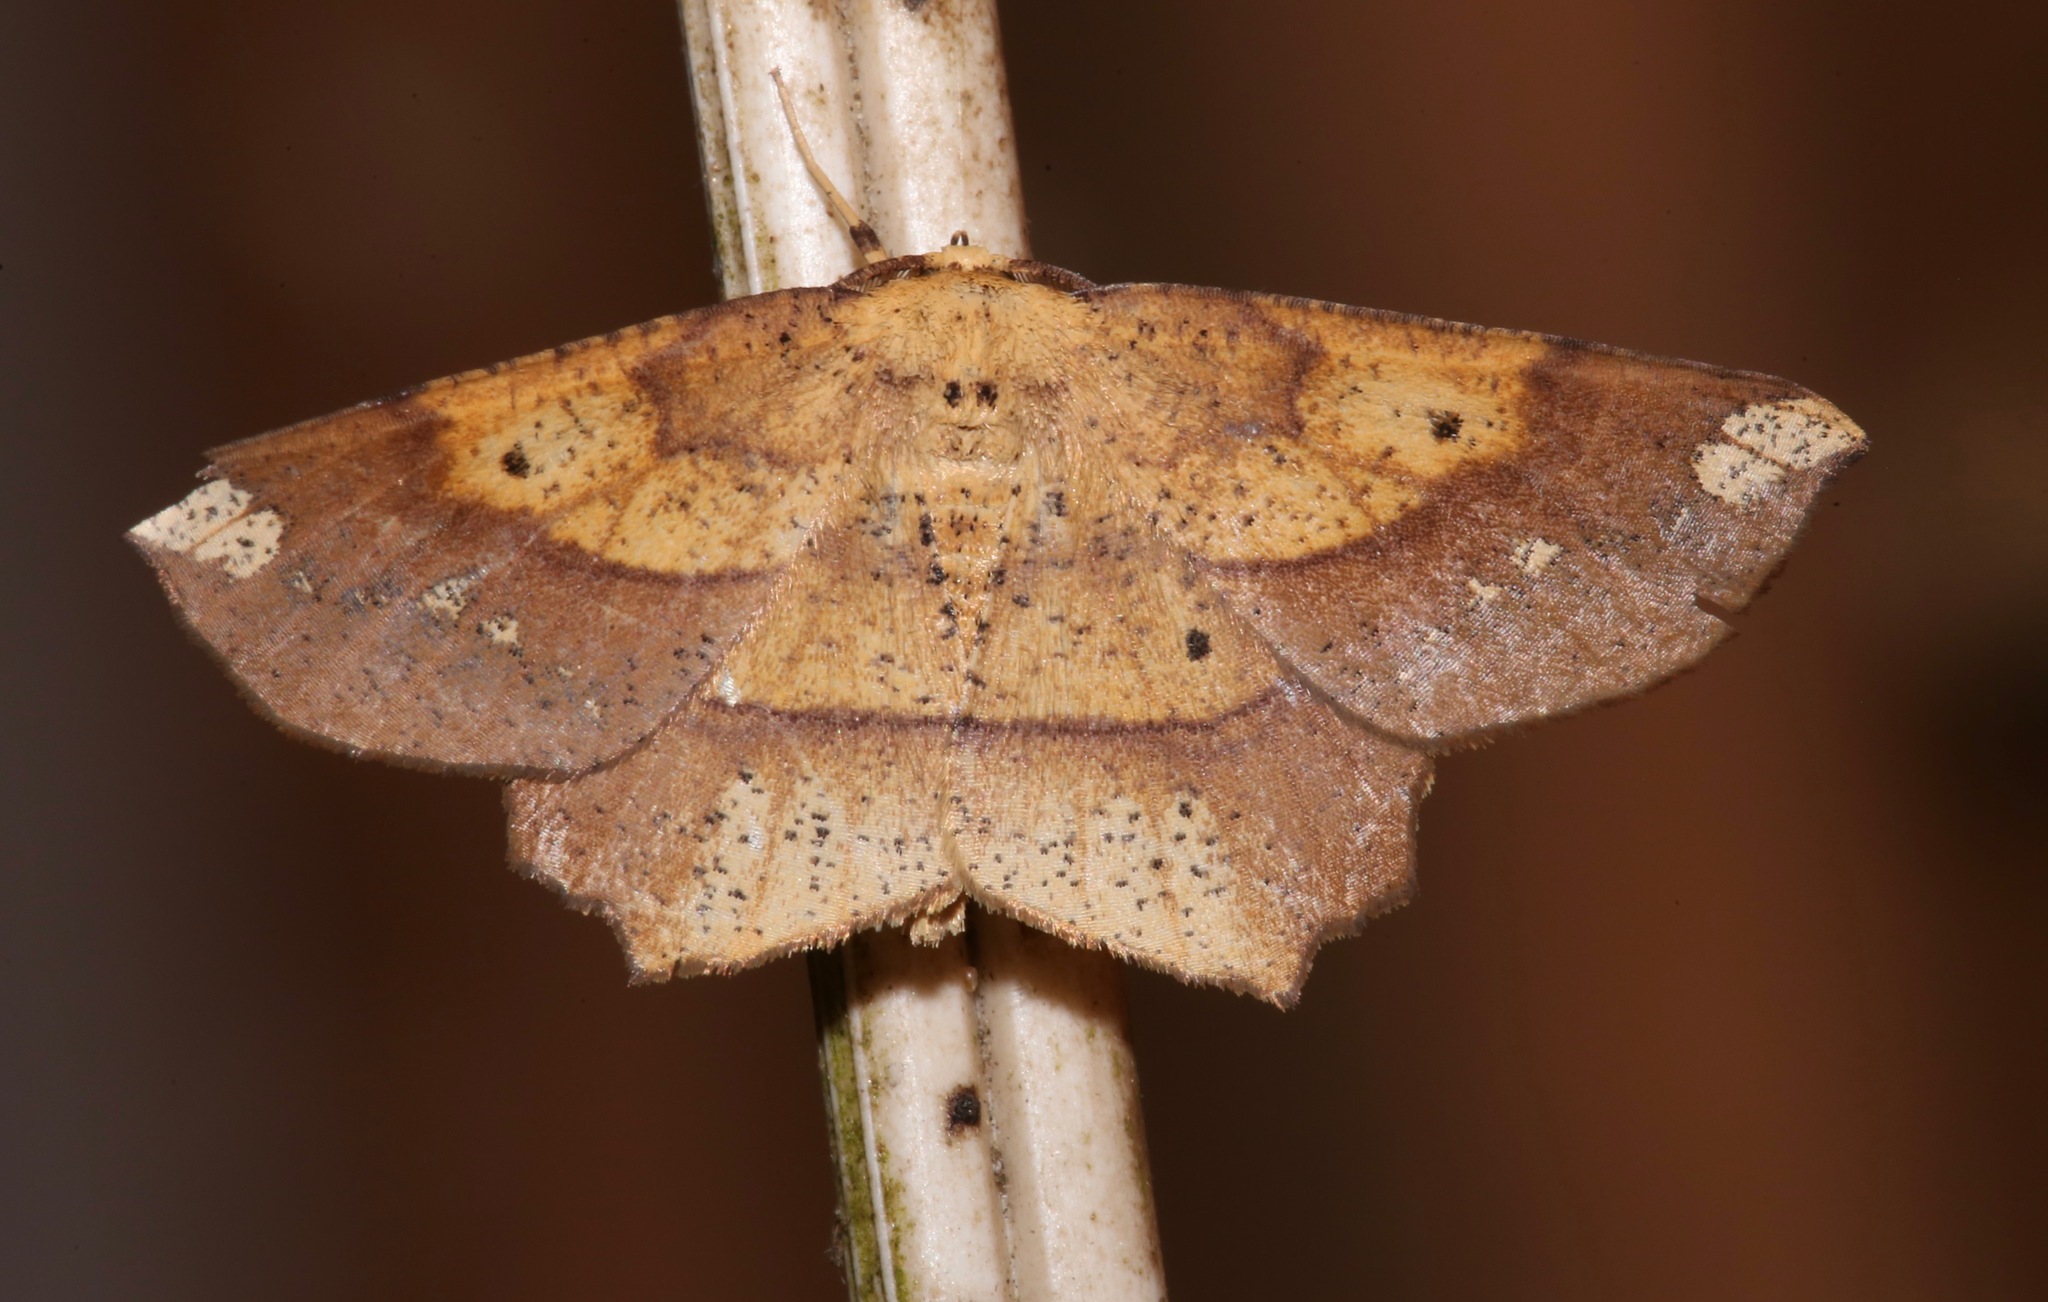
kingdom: Animalia
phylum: Arthropoda
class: Insecta
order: Lepidoptera
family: Geometridae
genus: Euchlaena
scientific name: Euchlaena amoenaria
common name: Deep yellow euchlaena
